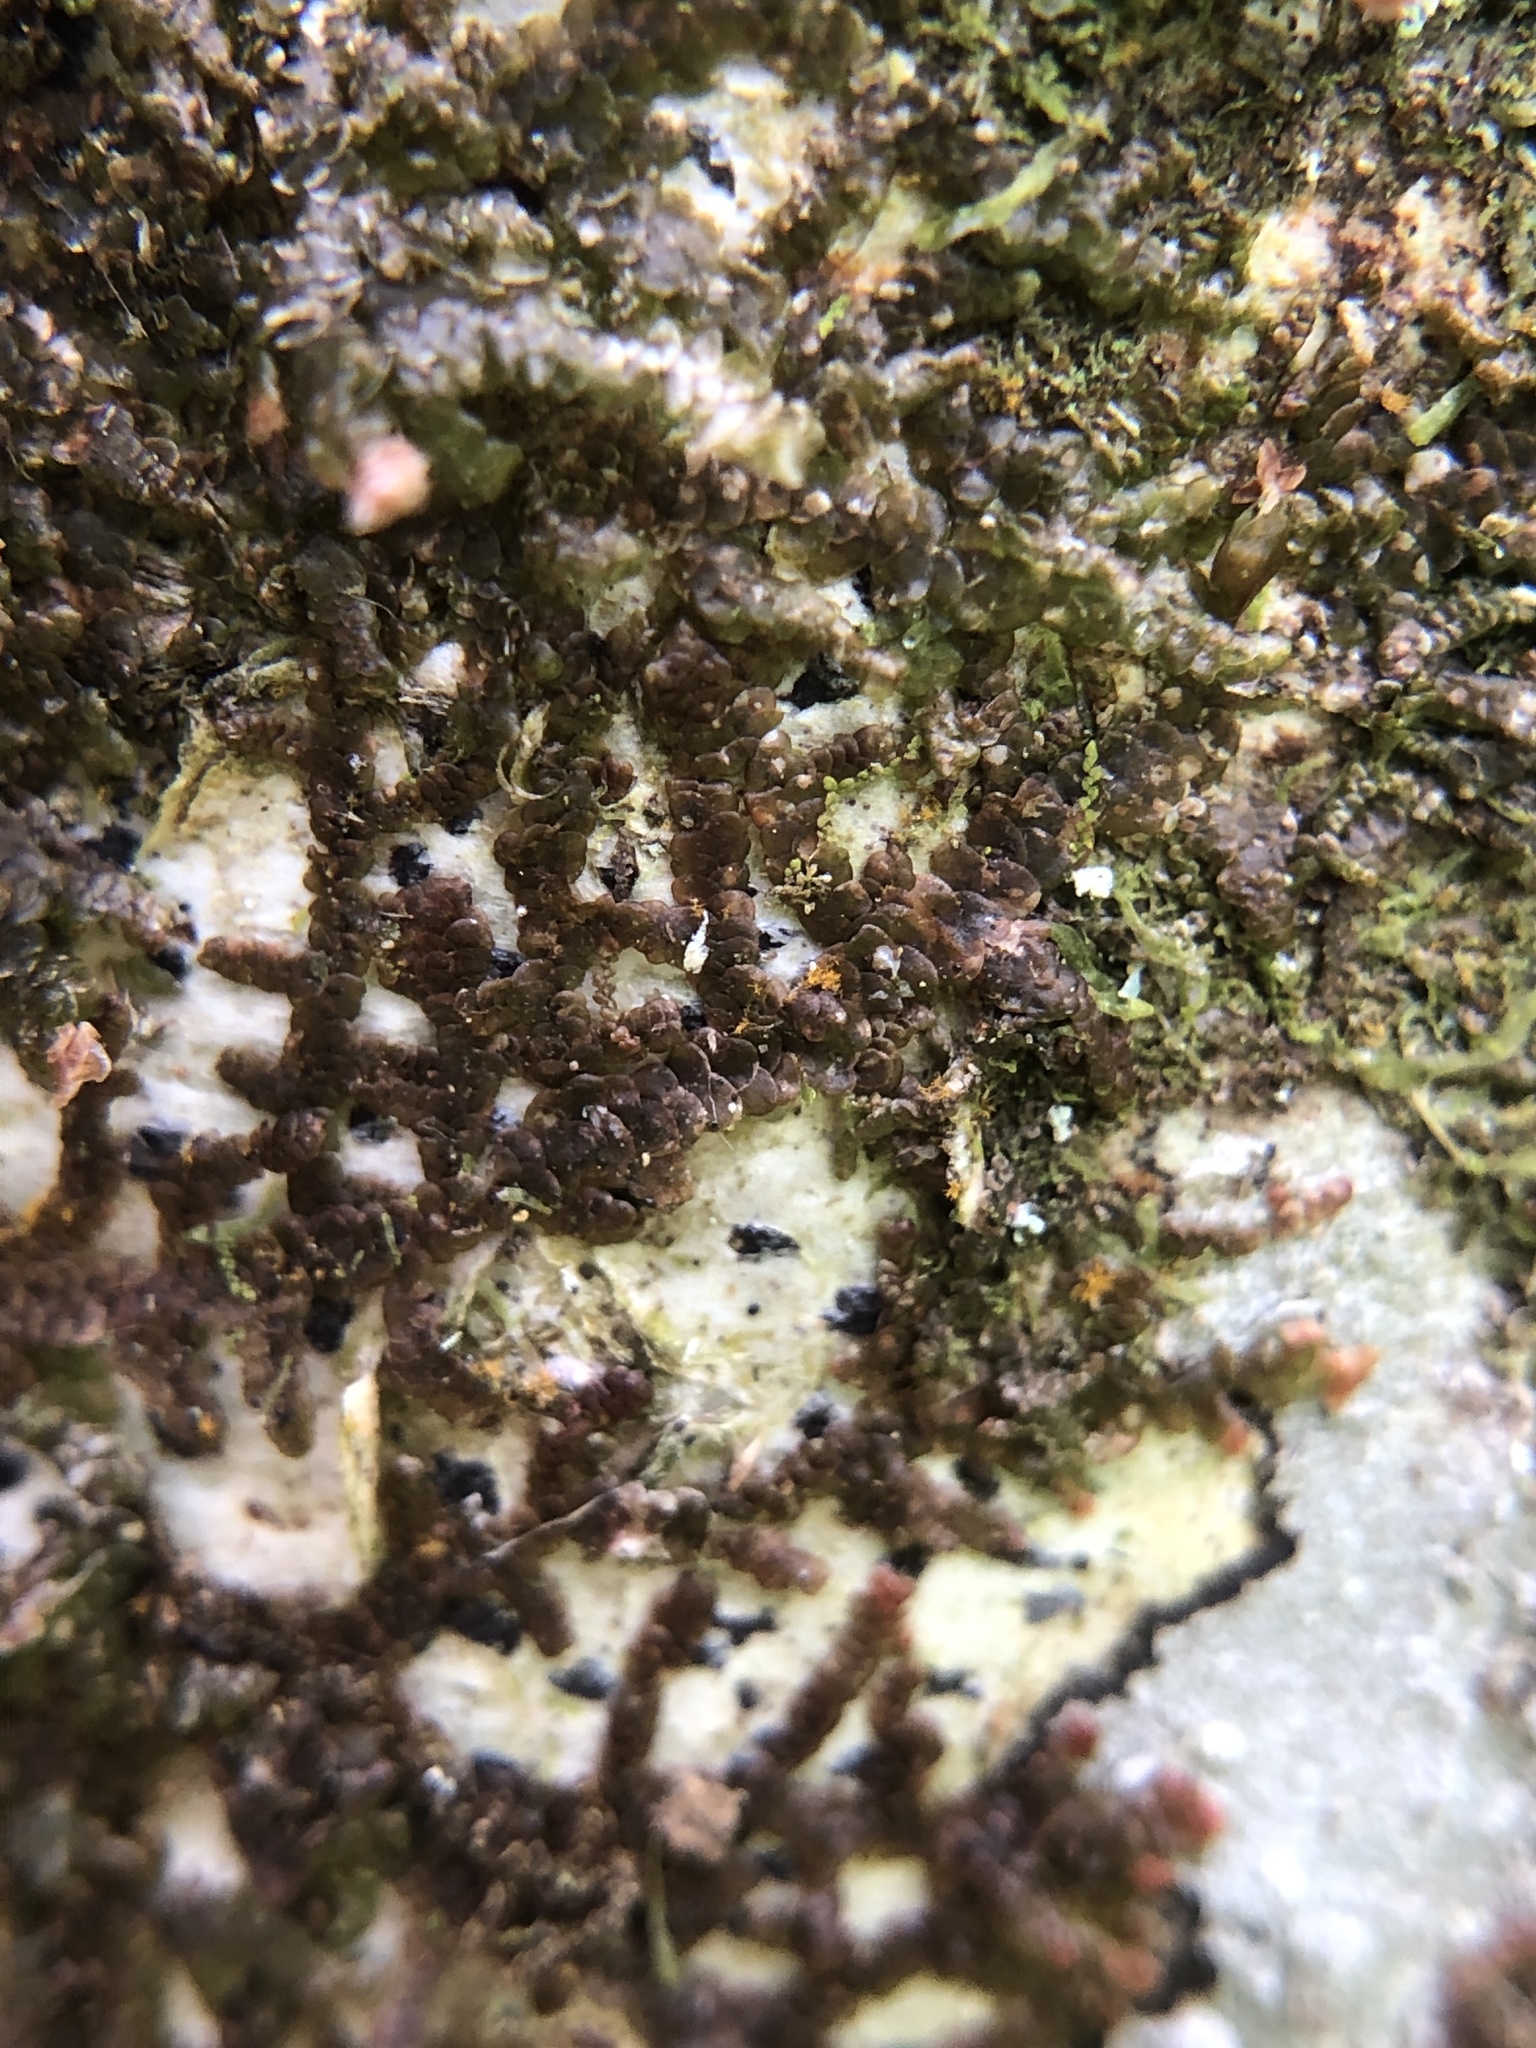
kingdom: Plantae
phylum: Marchantiophyta
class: Jungermanniopsida
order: Porellales
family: Frullaniaceae
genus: Frullania
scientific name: Frullania tamarisci
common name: Tamarisk scalewort
